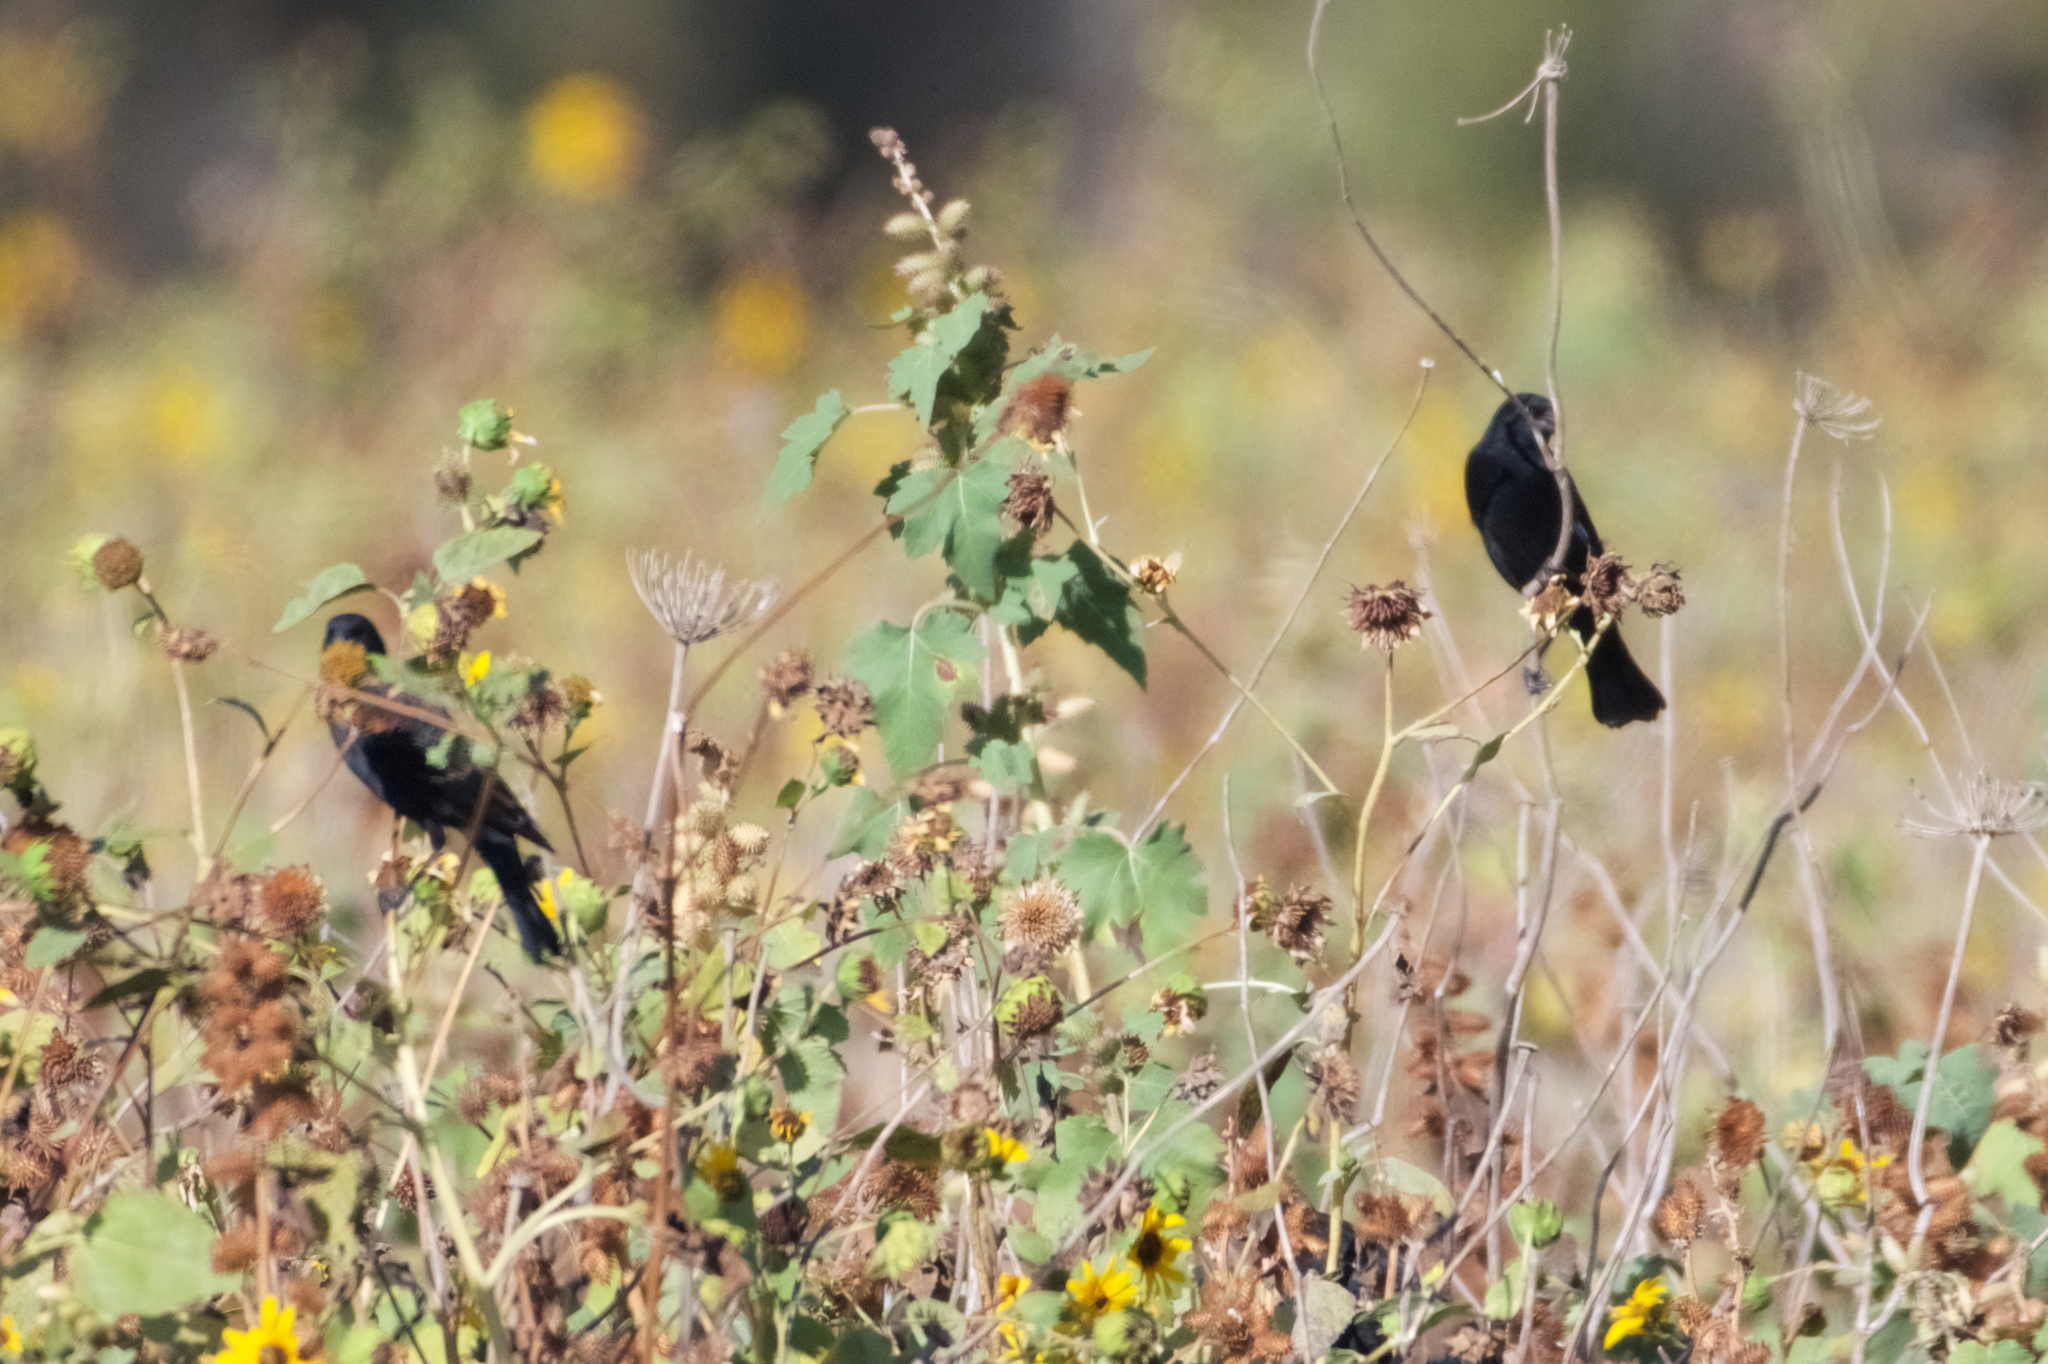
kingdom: Animalia
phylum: Chordata
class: Aves
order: Passeriformes
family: Icteridae
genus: Agelaius
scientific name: Agelaius phoeniceus
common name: Red-winged blackbird
